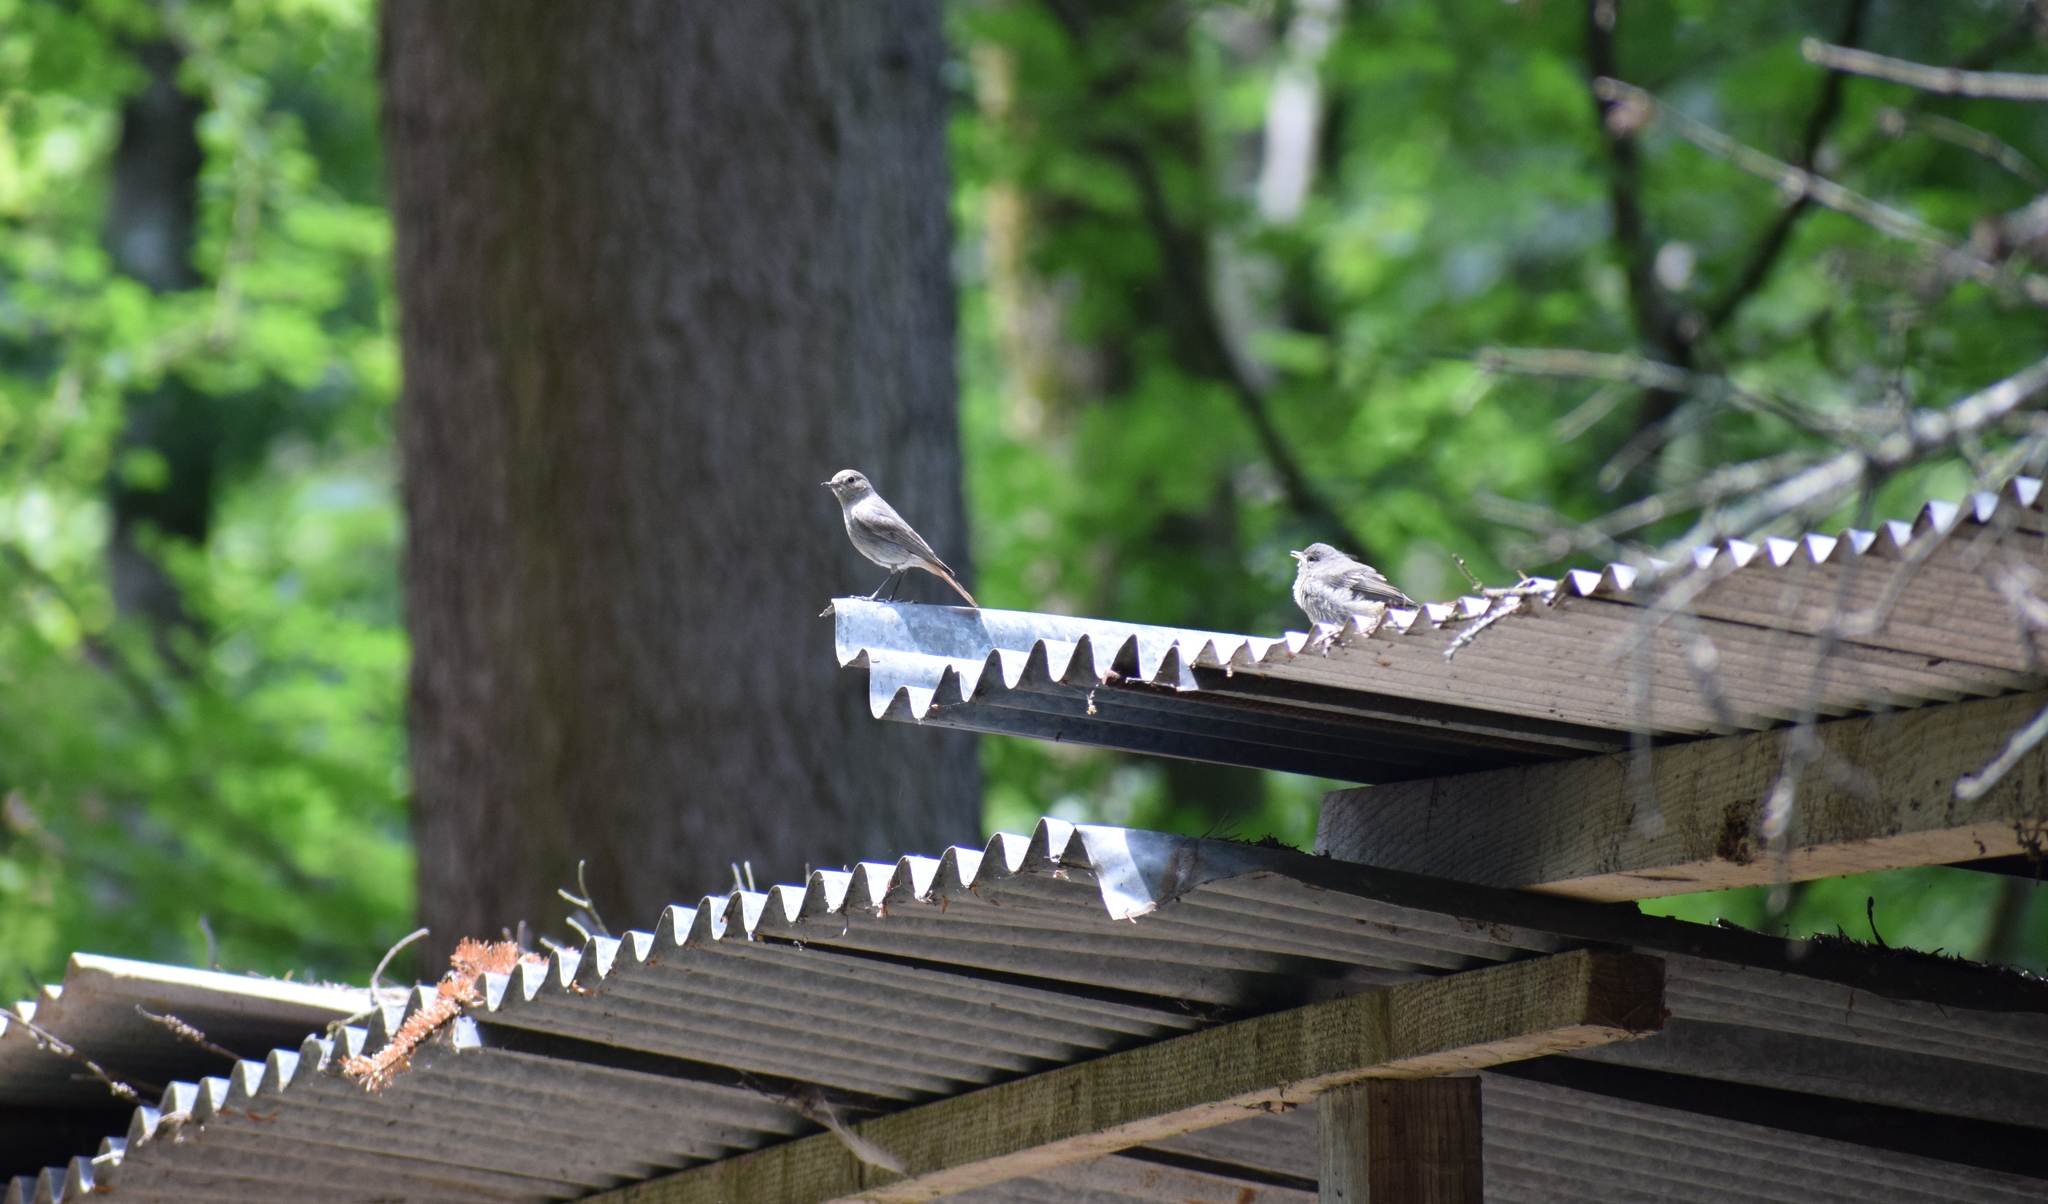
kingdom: Animalia
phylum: Chordata
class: Aves
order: Passeriformes
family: Muscicapidae
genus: Phoenicurus
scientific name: Phoenicurus ochruros
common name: Black redstart
